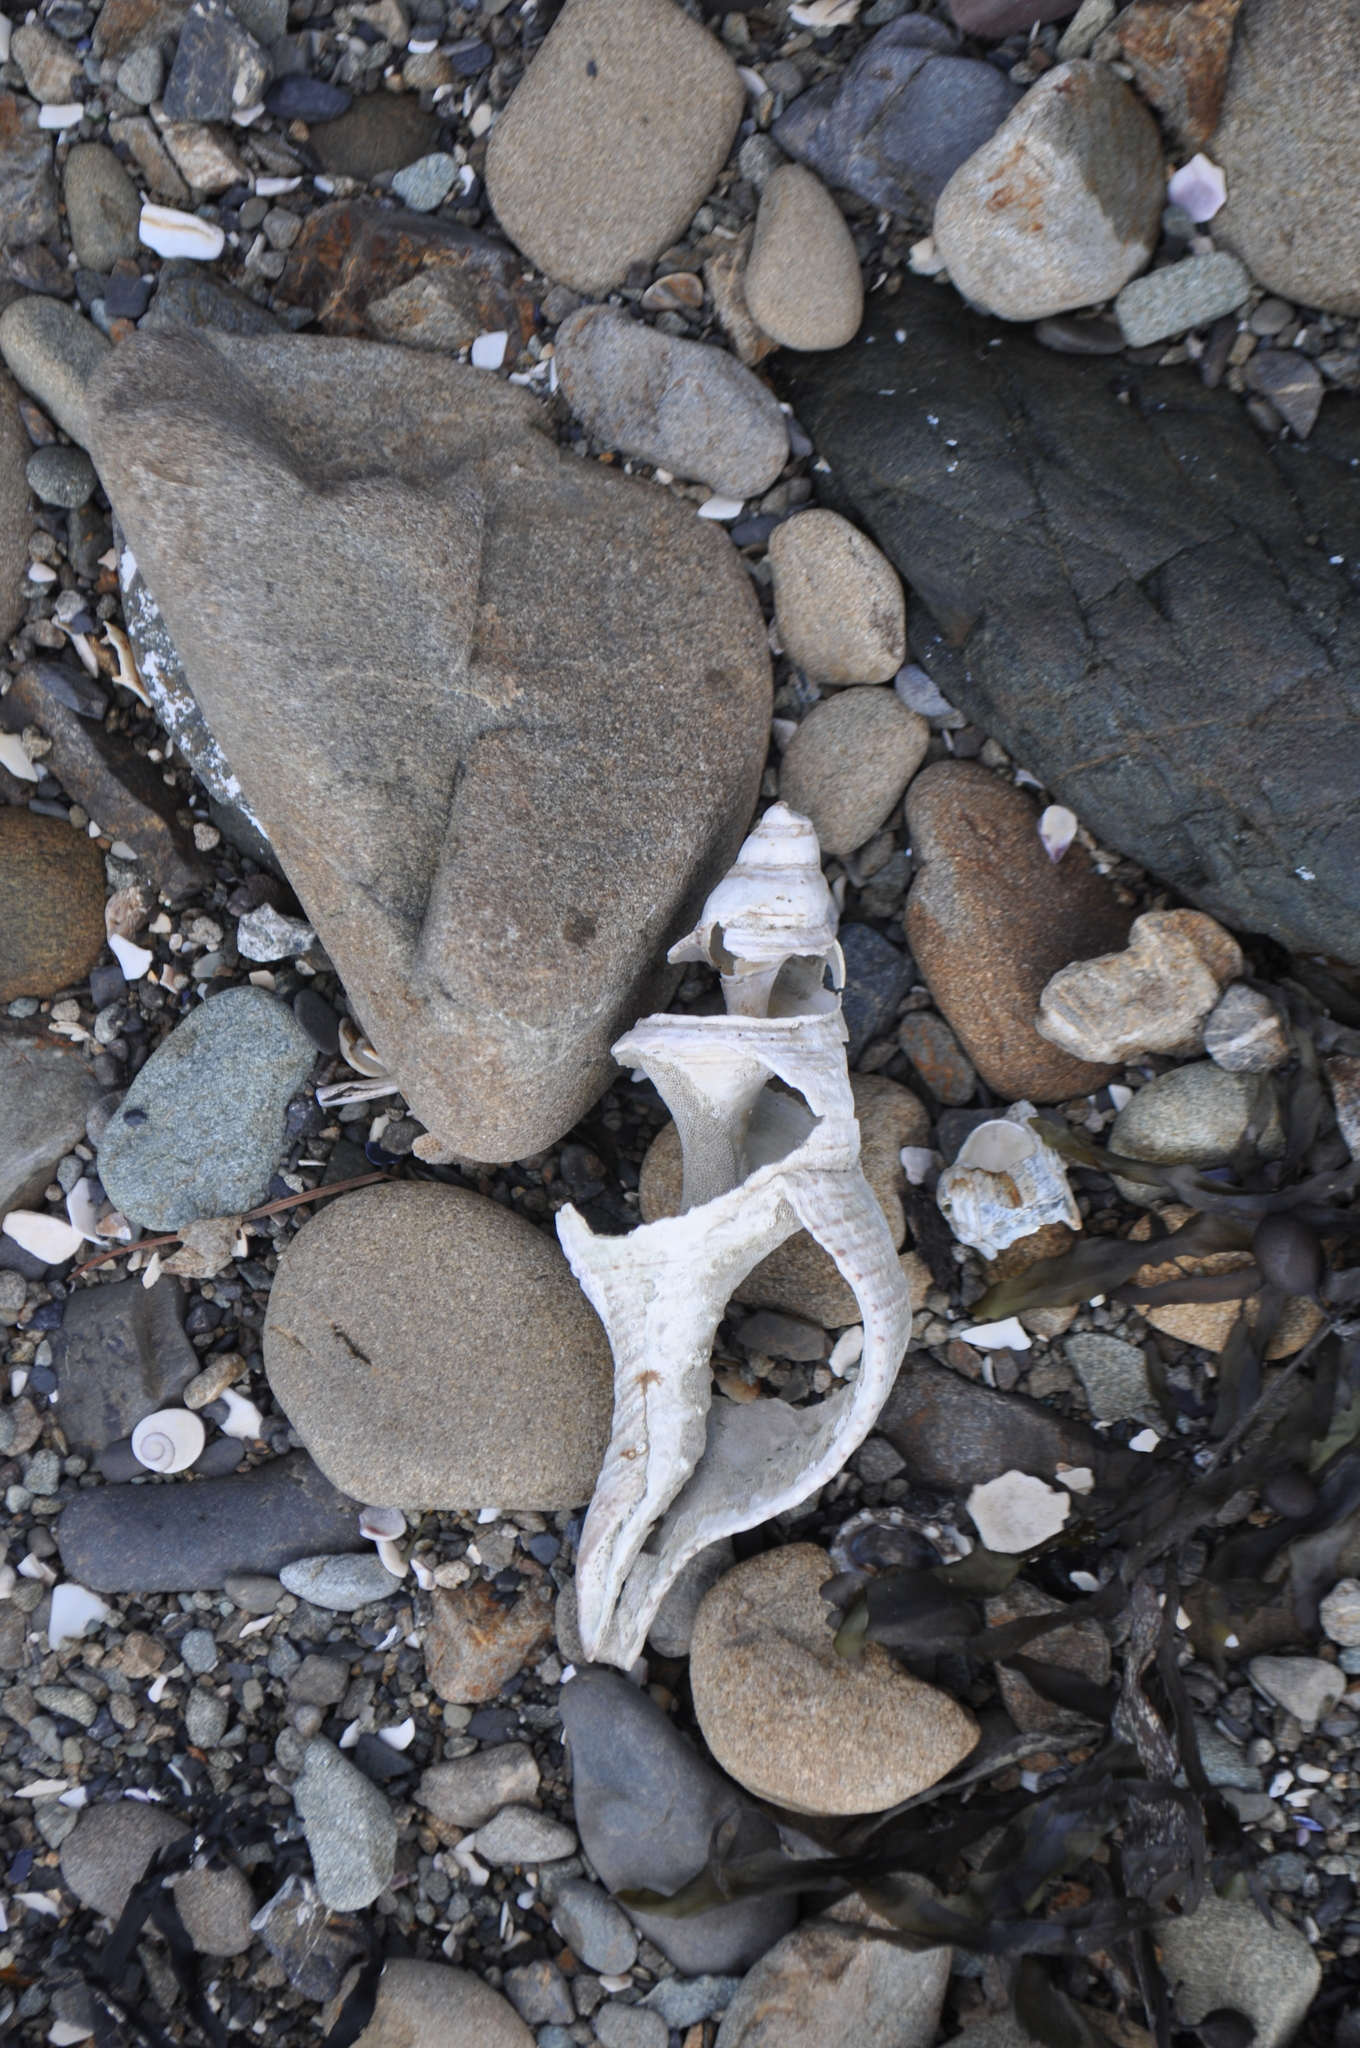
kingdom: Animalia
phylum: Mollusca
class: Gastropoda
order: Neogastropoda
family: Austrosiphonidae
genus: Penion
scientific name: Penion sulcatus
